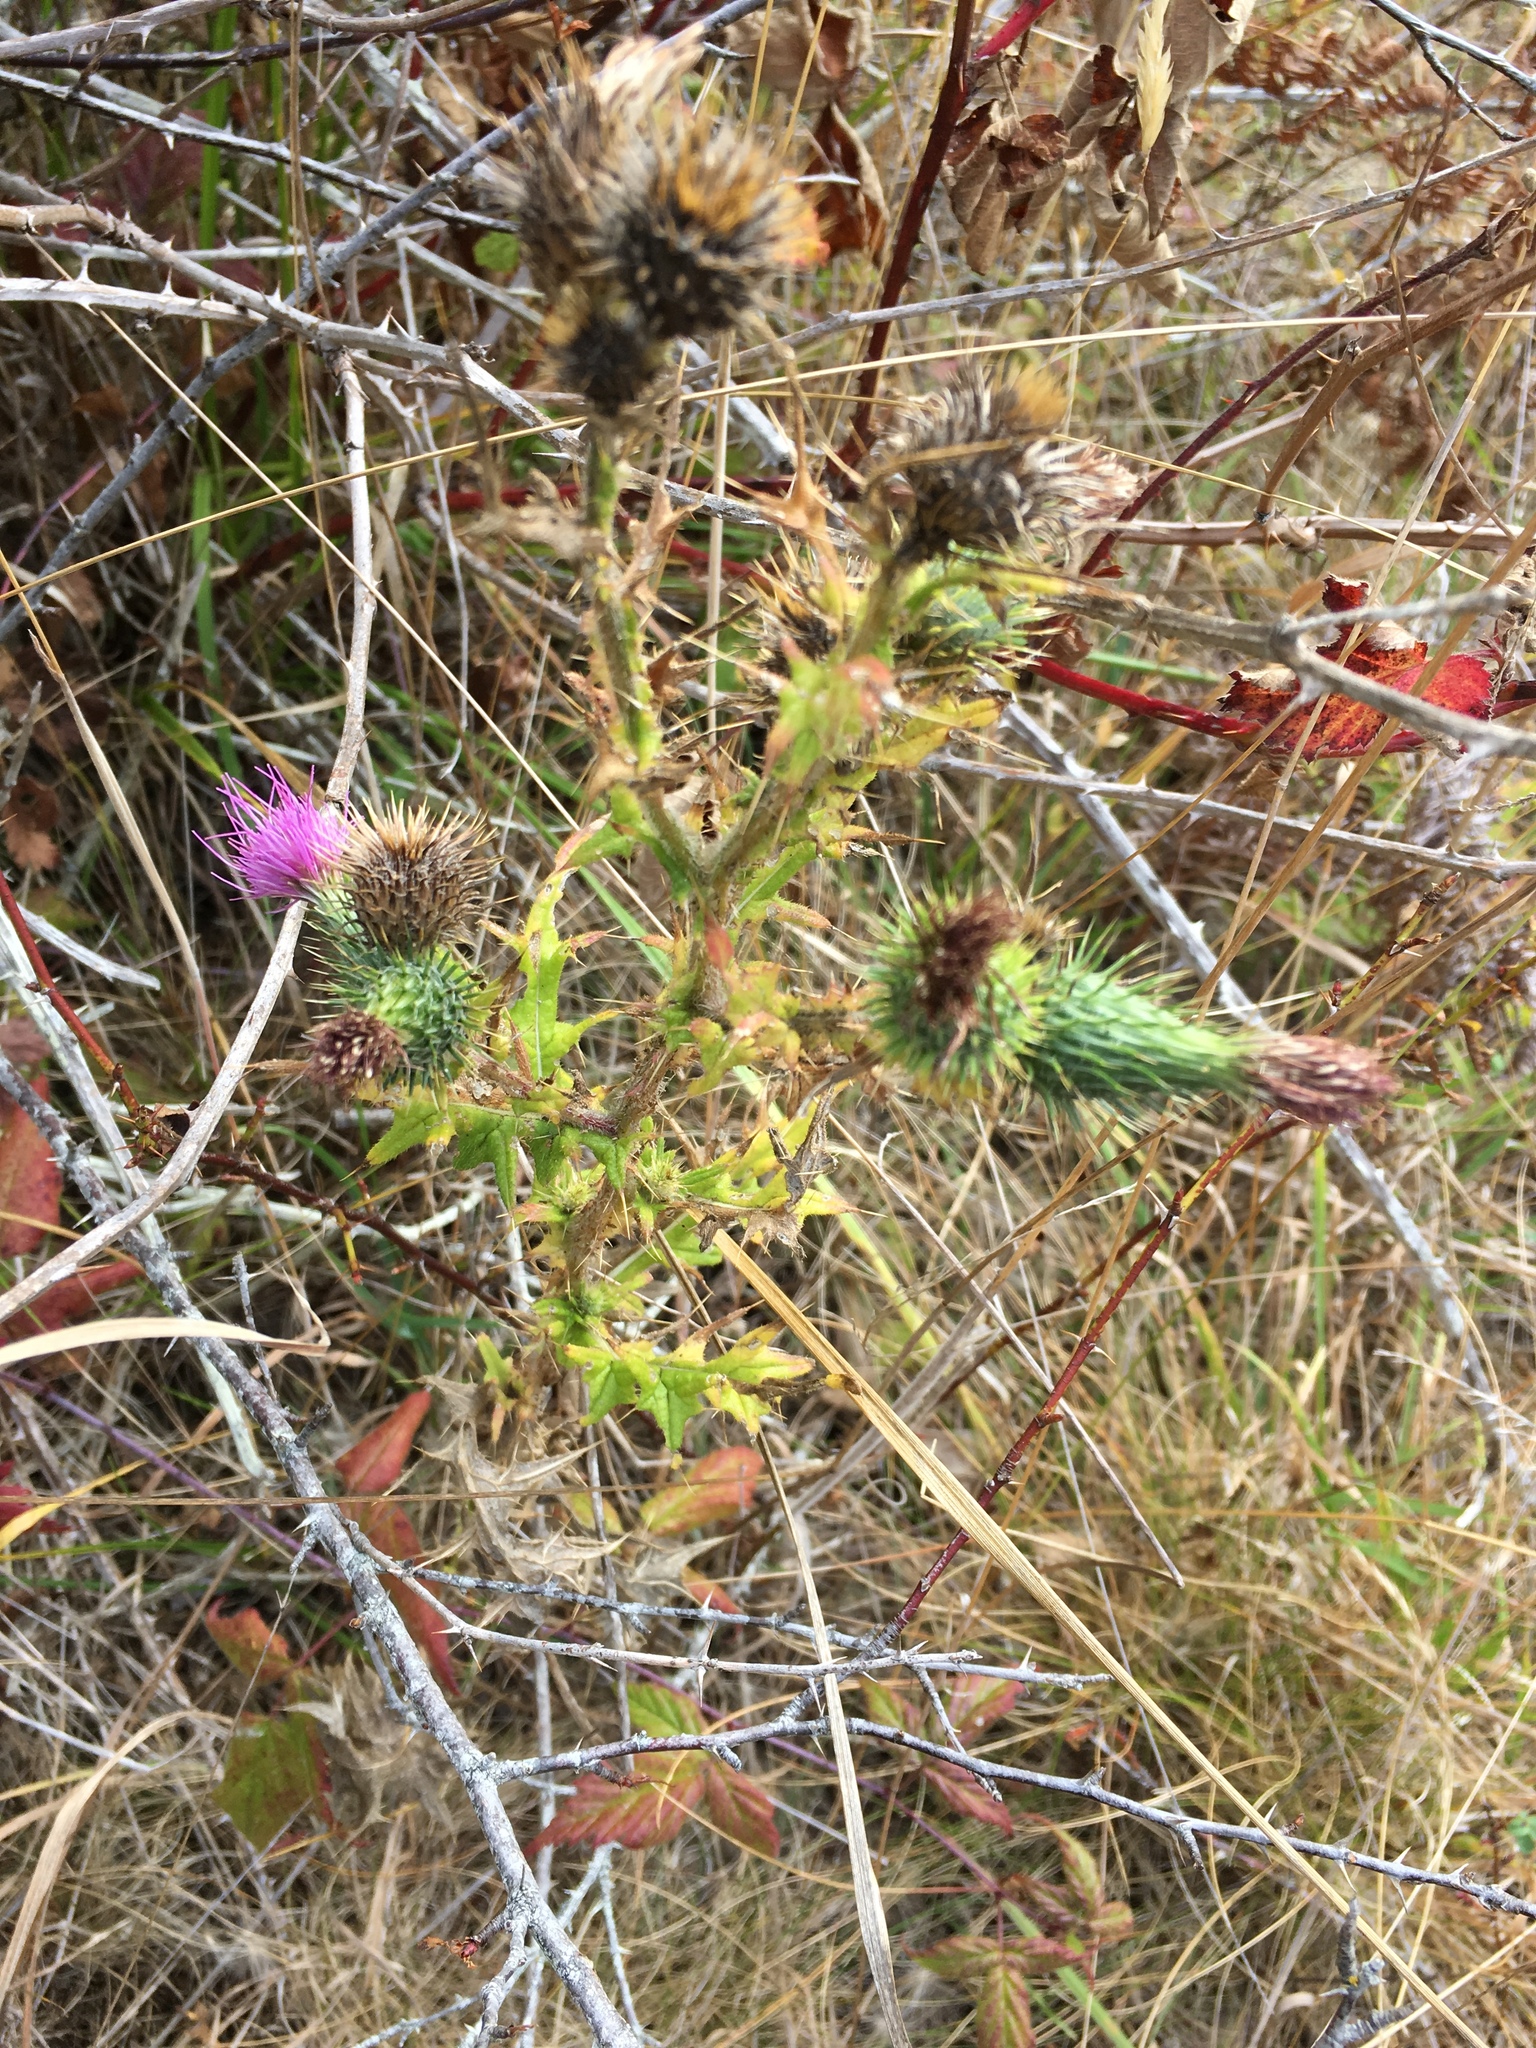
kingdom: Plantae
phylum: Tracheophyta
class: Magnoliopsida
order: Asterales
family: Asteraceae
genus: Cirsium
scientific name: Cirsium vulgare
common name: Bull thistle
